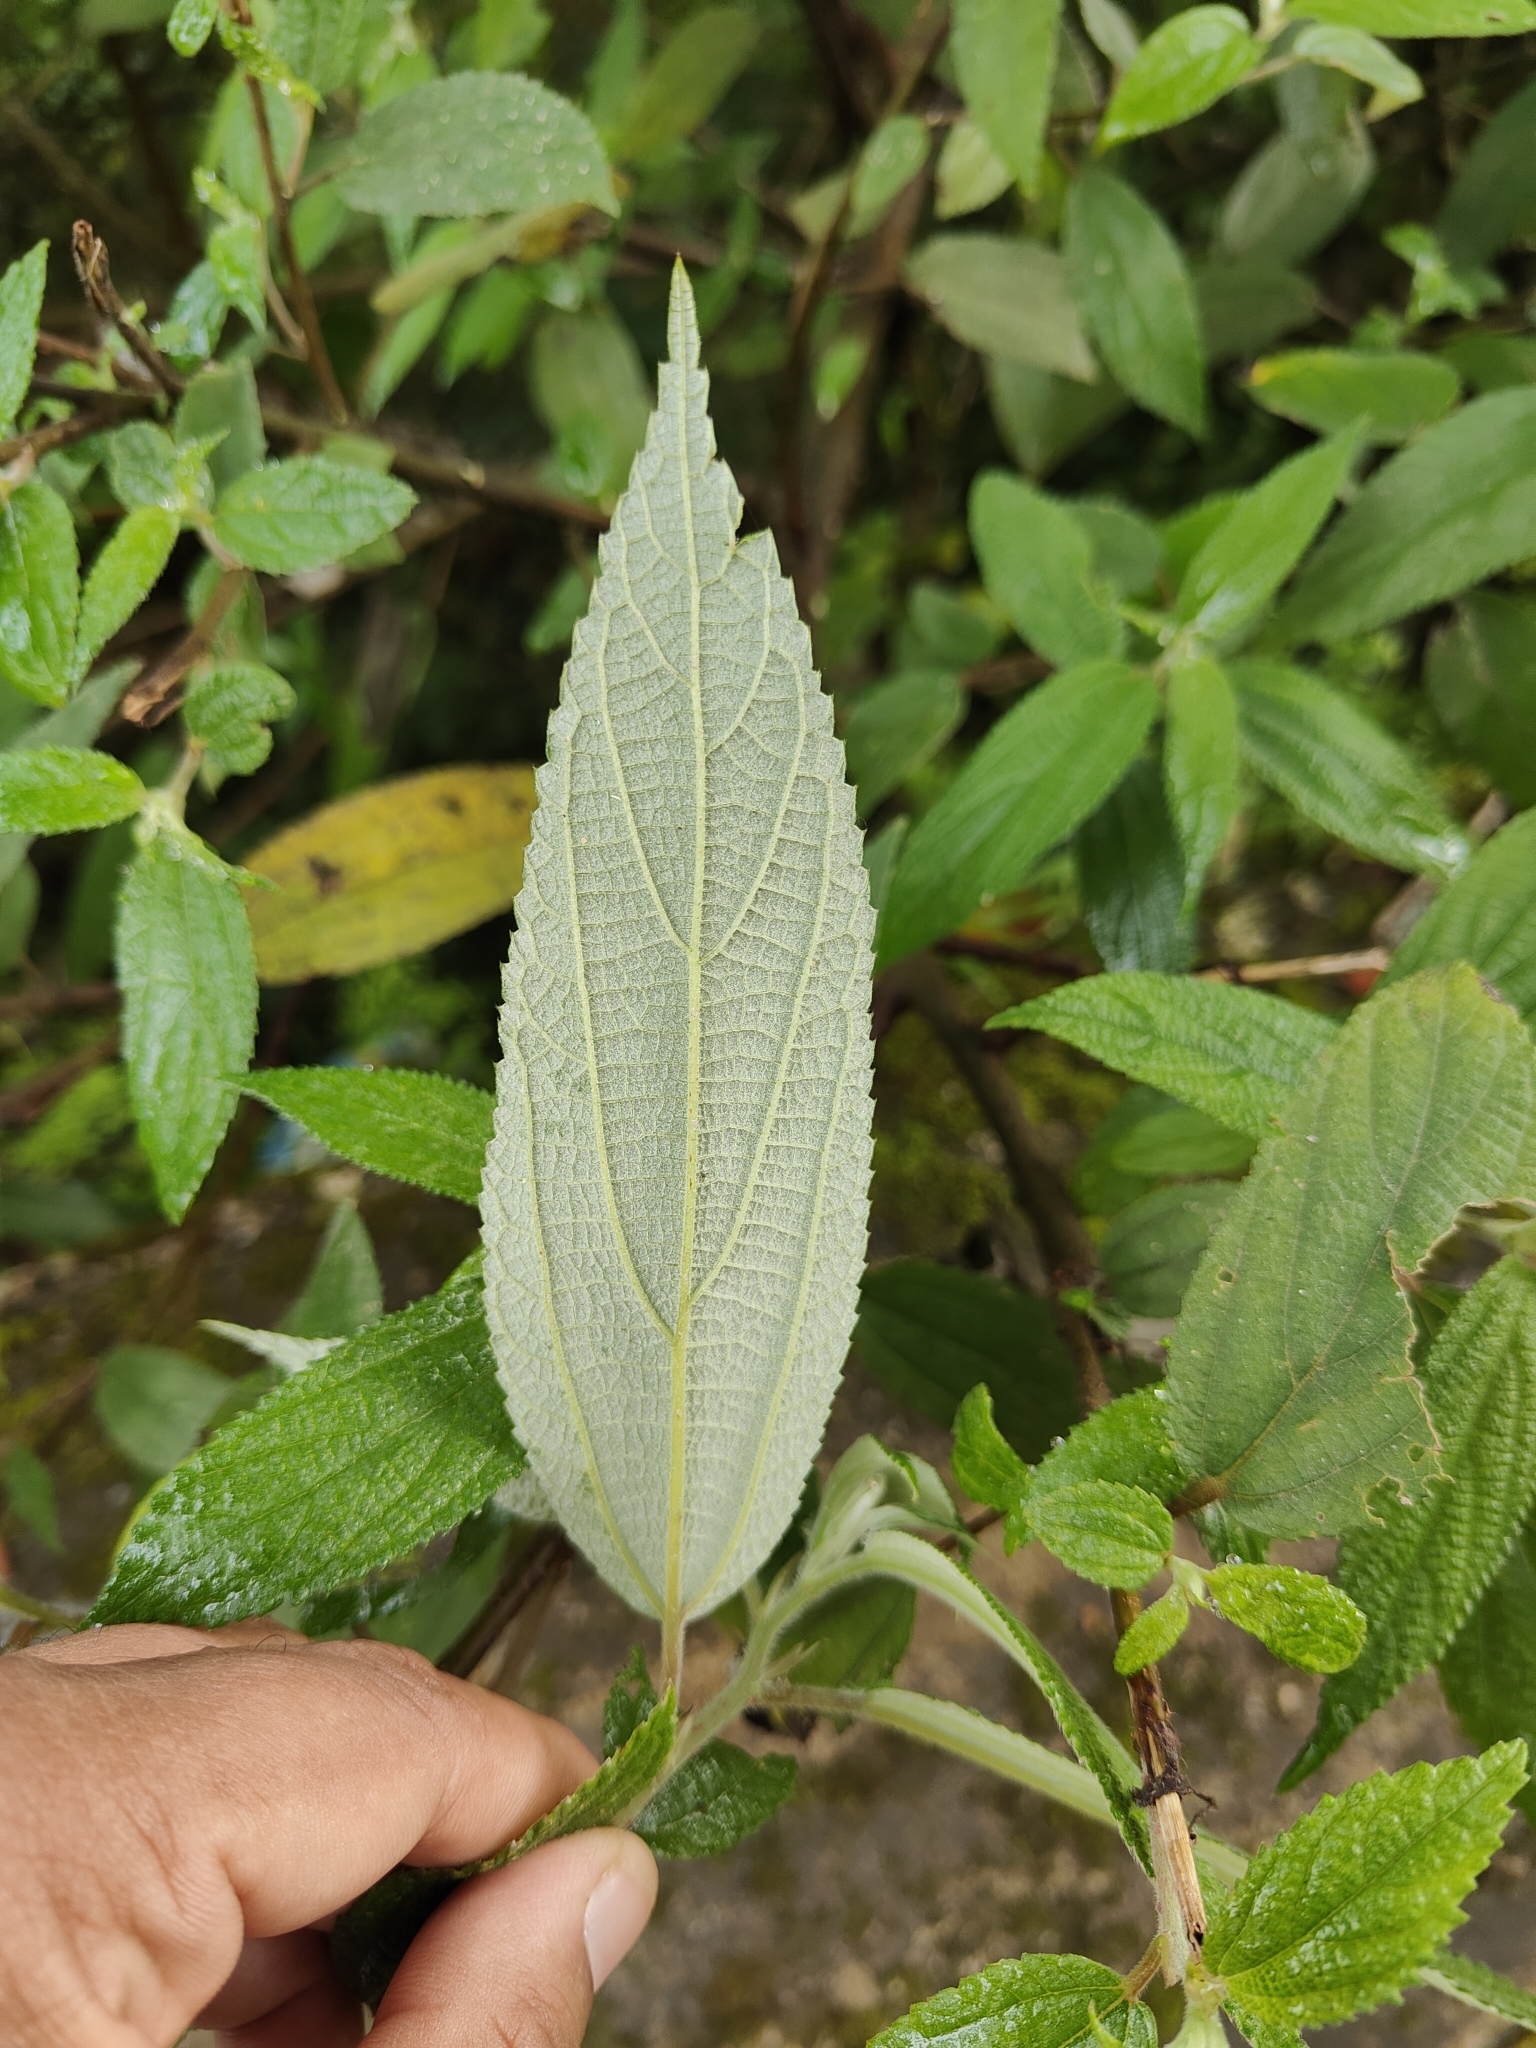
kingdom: Plantae
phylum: Tracheophyta
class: Magnoliopsida
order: Rosales
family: Urticaceae
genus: Debregeasia
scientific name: Debregeasia longifolia
